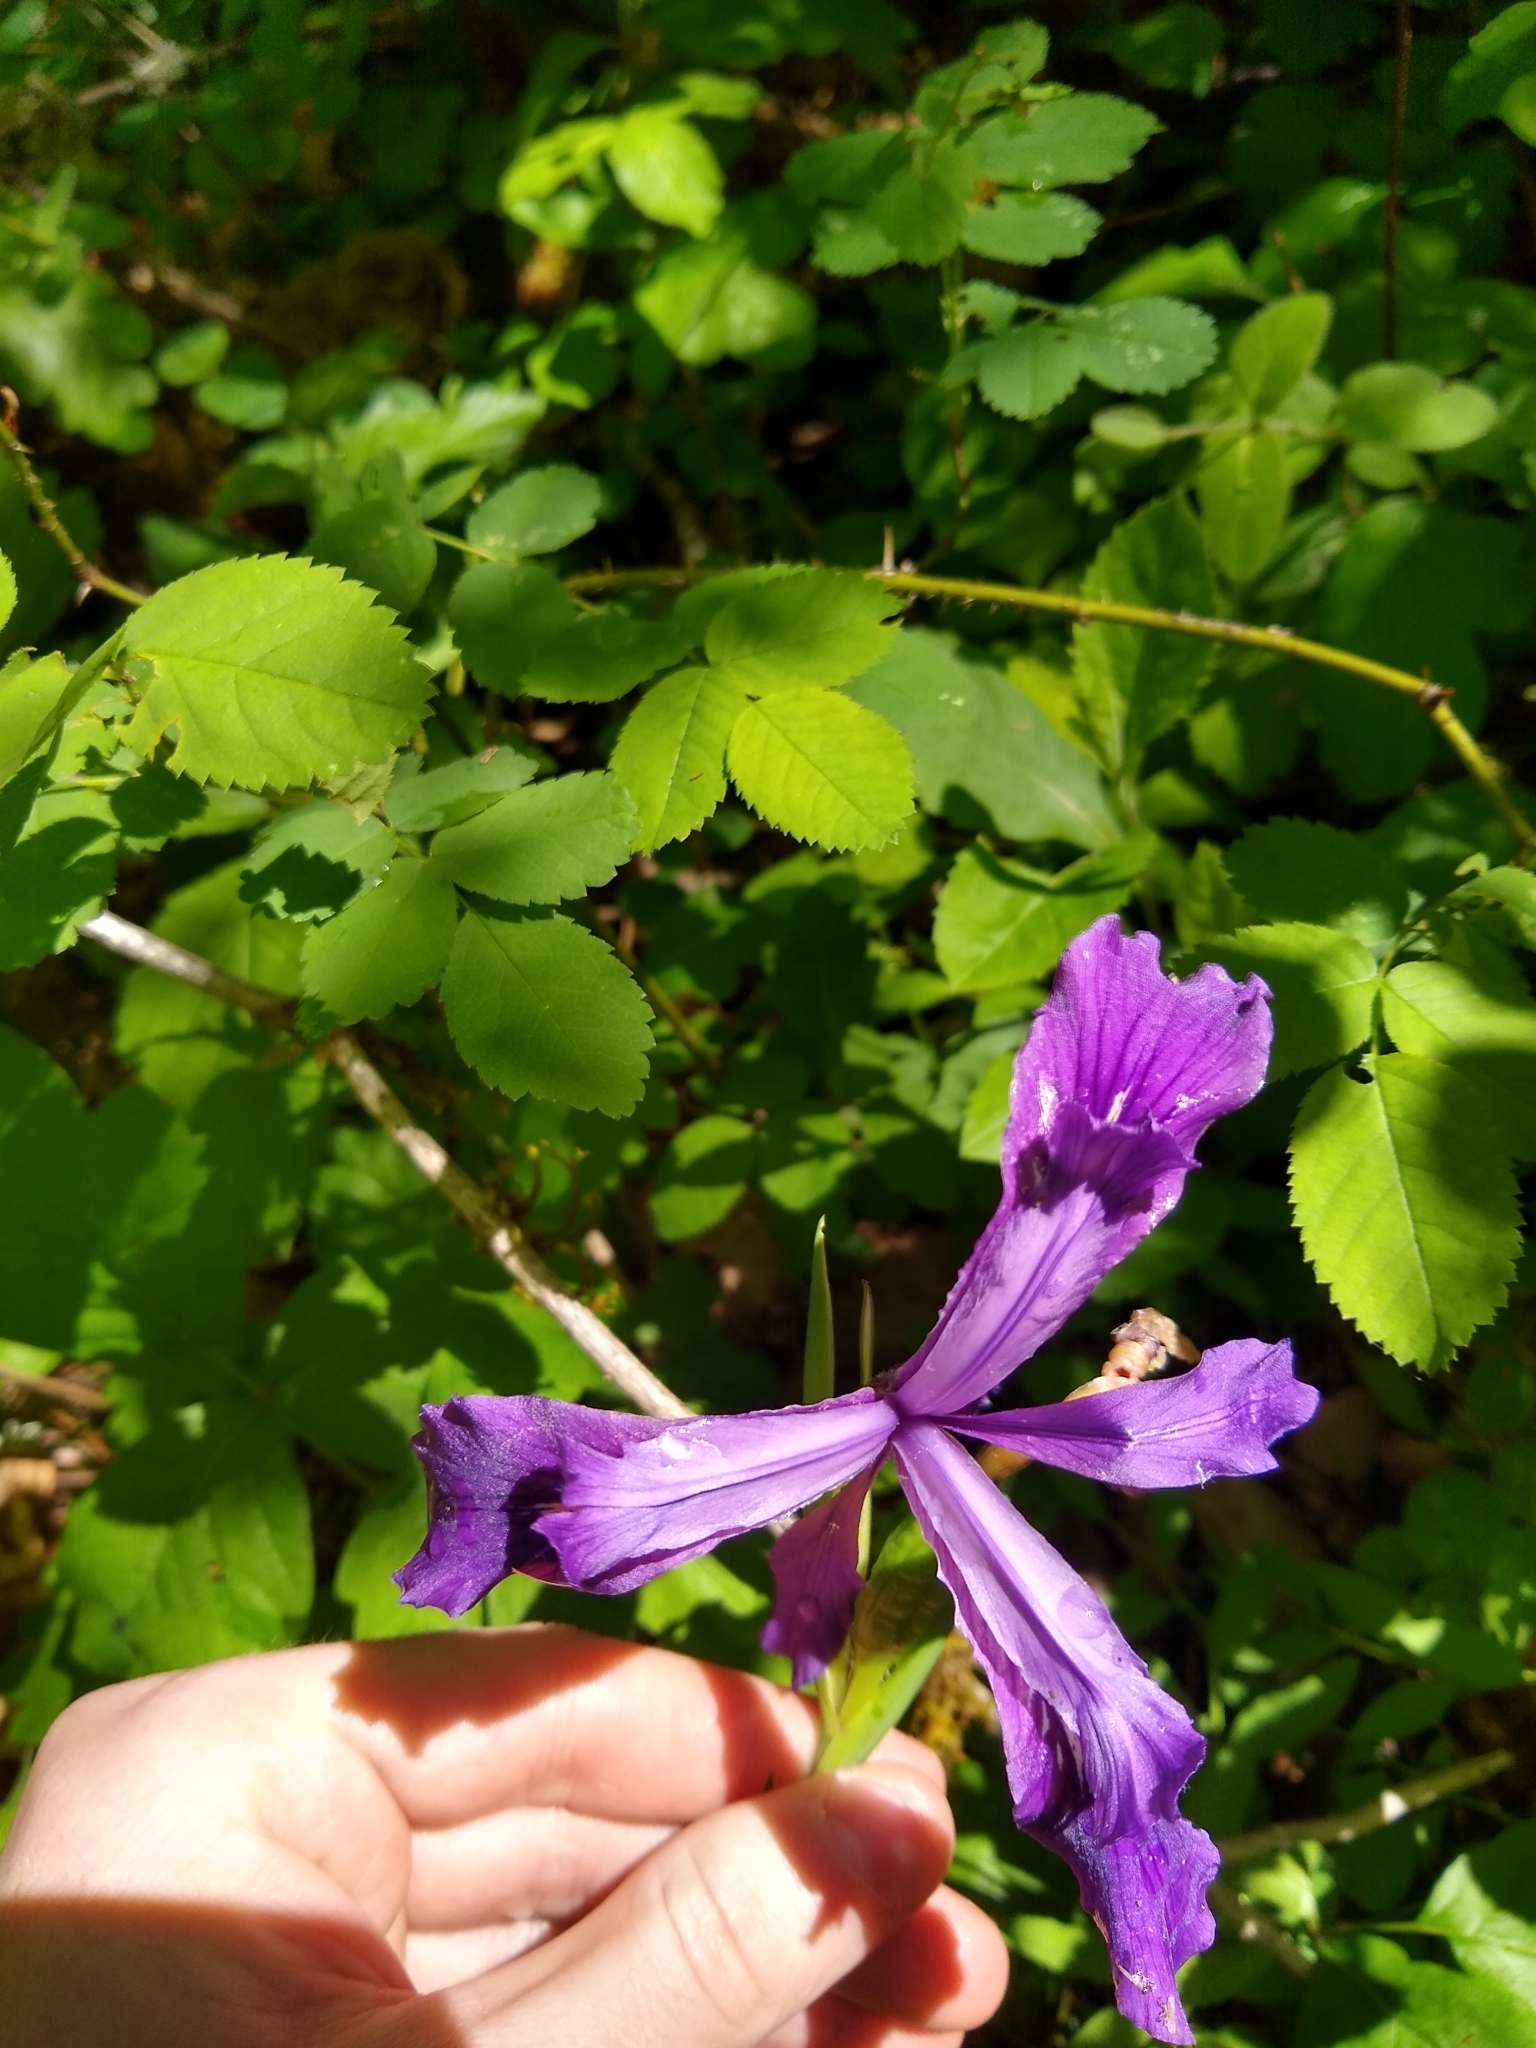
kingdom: Plantae
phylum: Tracheophyta
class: Liliopsida
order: Asparagales
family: Iridaceae
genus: Iris
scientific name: Iris tenax
